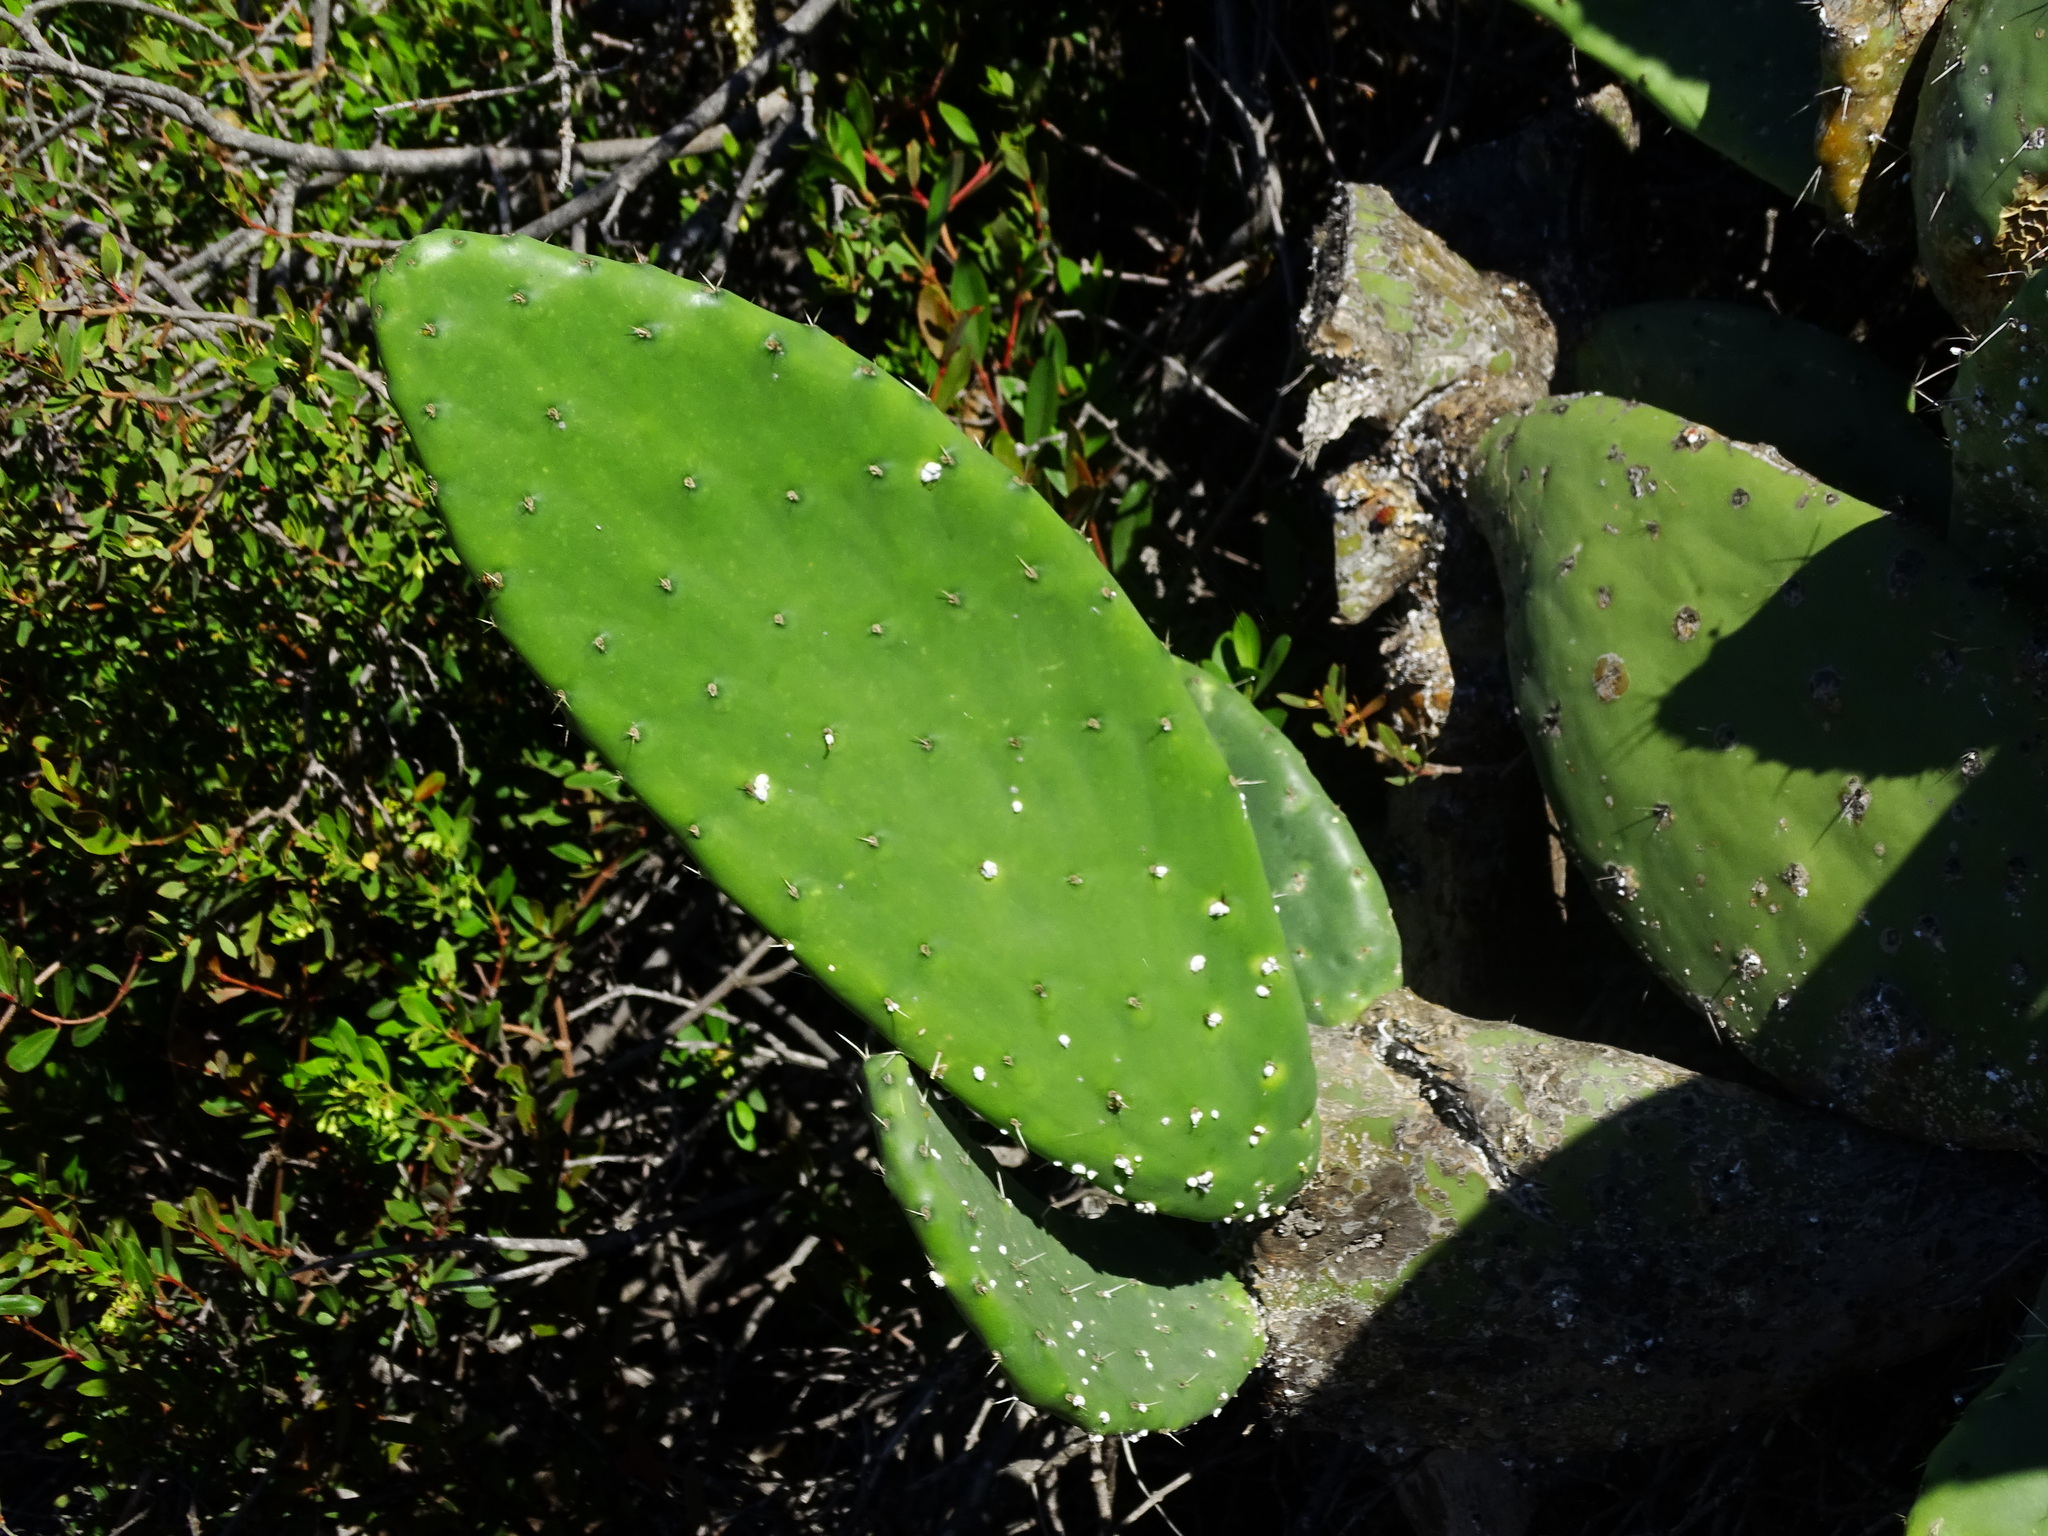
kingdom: Plantae
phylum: Tracheophyta
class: Magnoliopsida
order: Caryophyllales
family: Cactaceae
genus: Opuntia
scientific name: Opuntia ficus-indica
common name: Barbary fig
